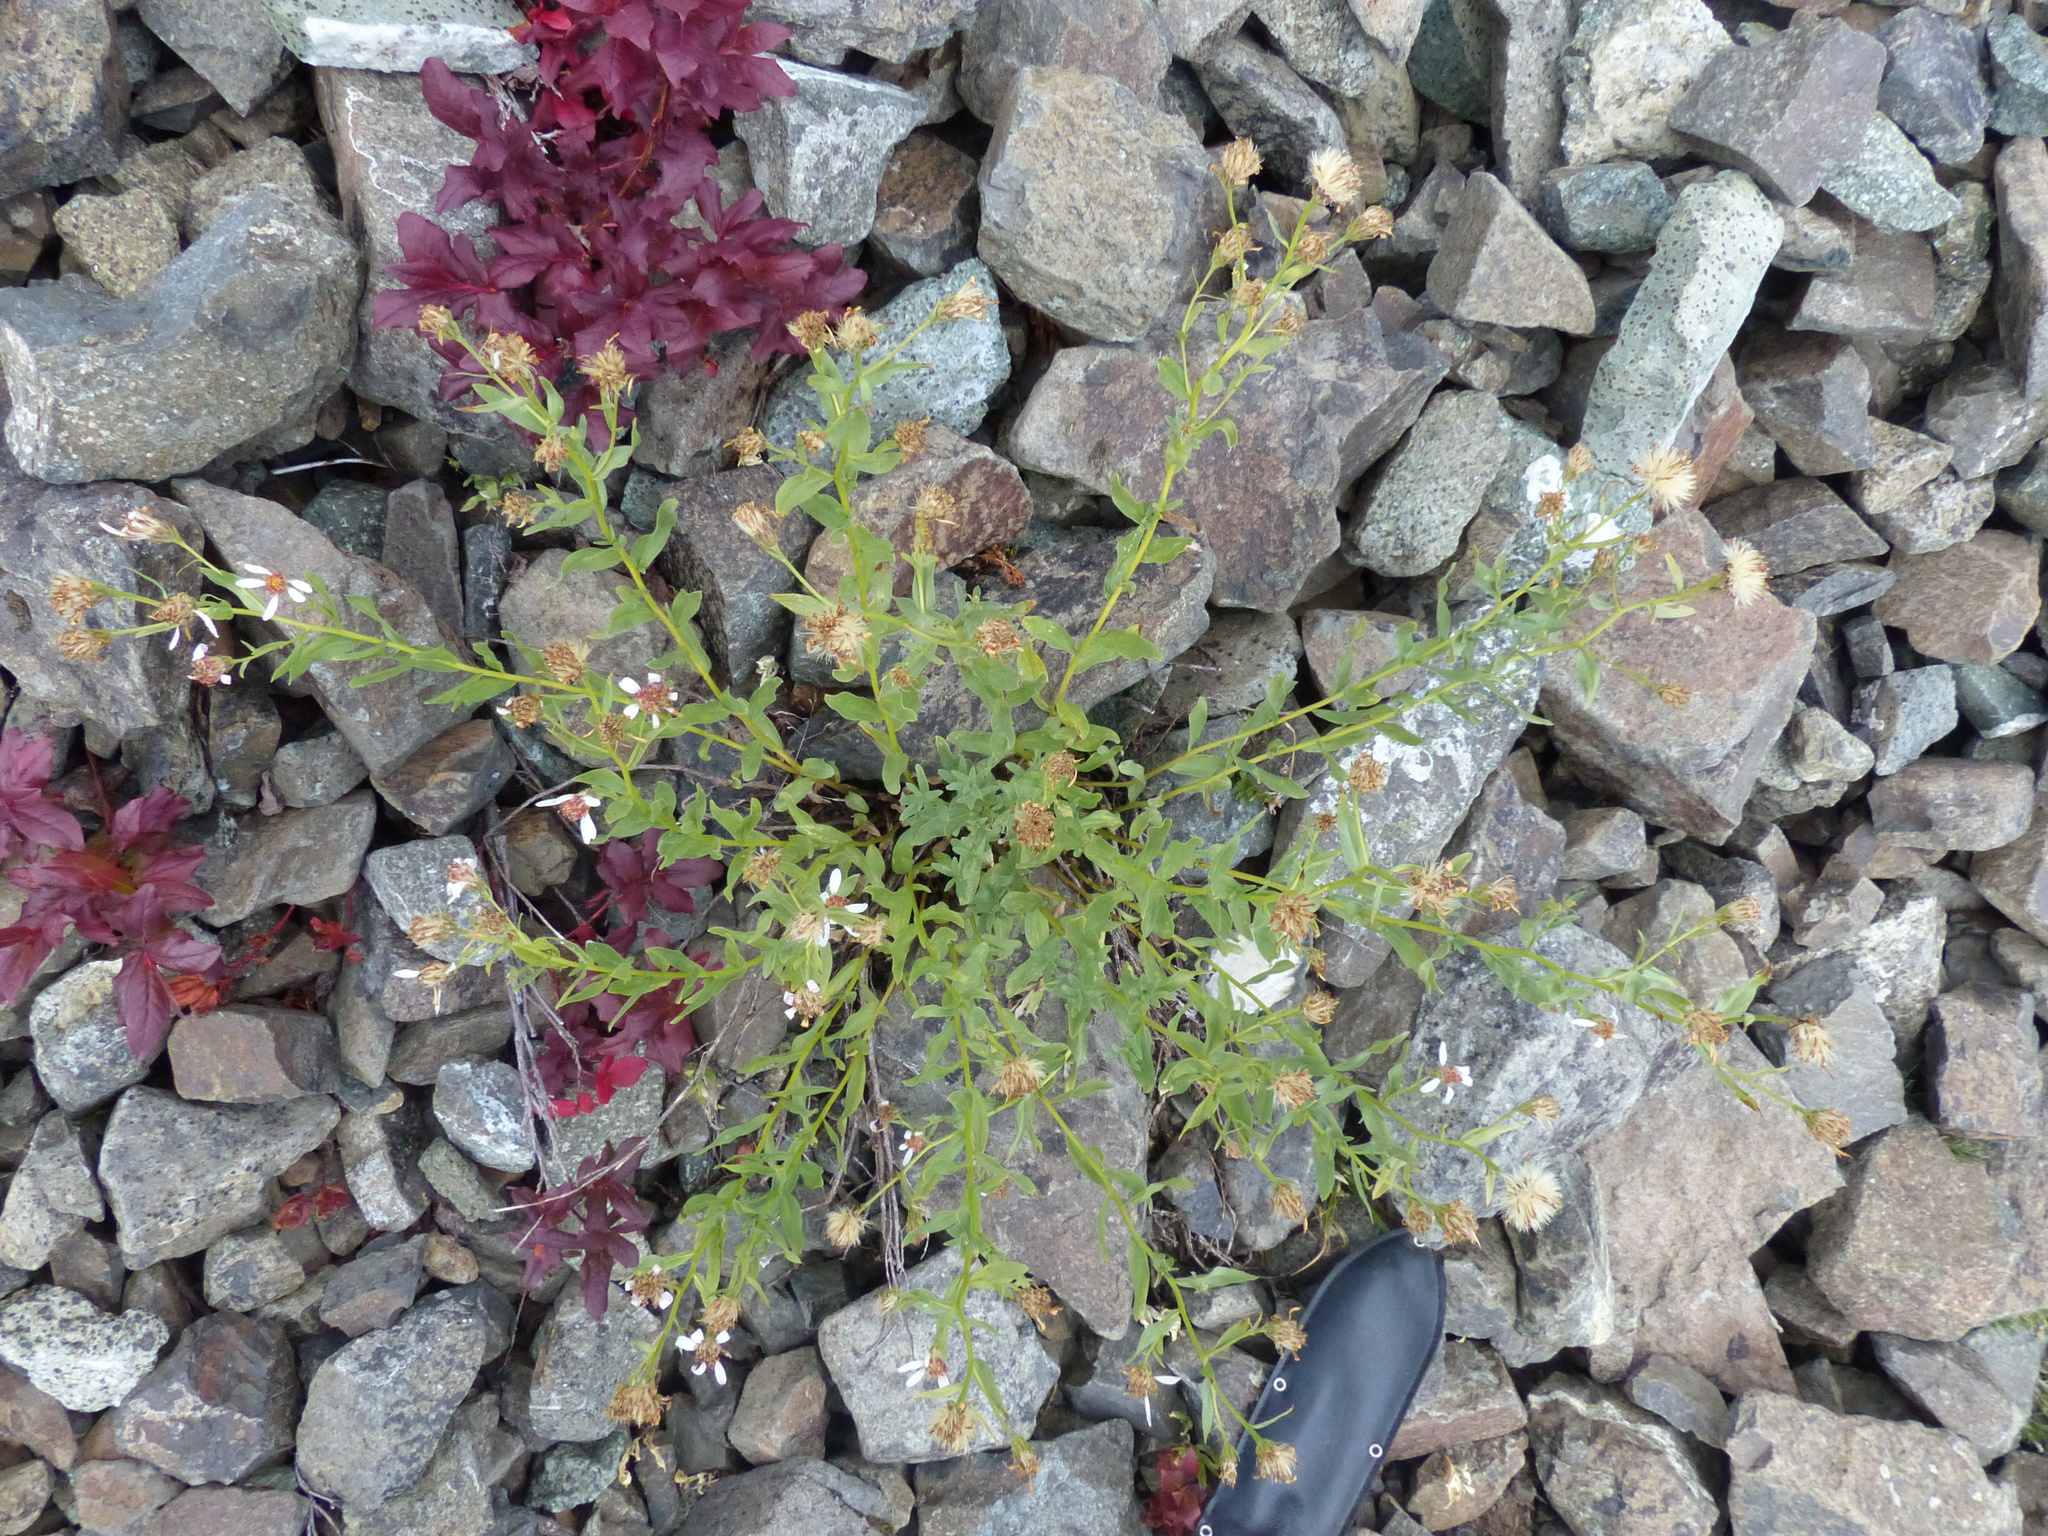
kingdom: Plantae
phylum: Tracheophyta
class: Magnoliopsida
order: Asterales
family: Asteraceae
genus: Eucephalus
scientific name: Eucephalus paucicapitatus
